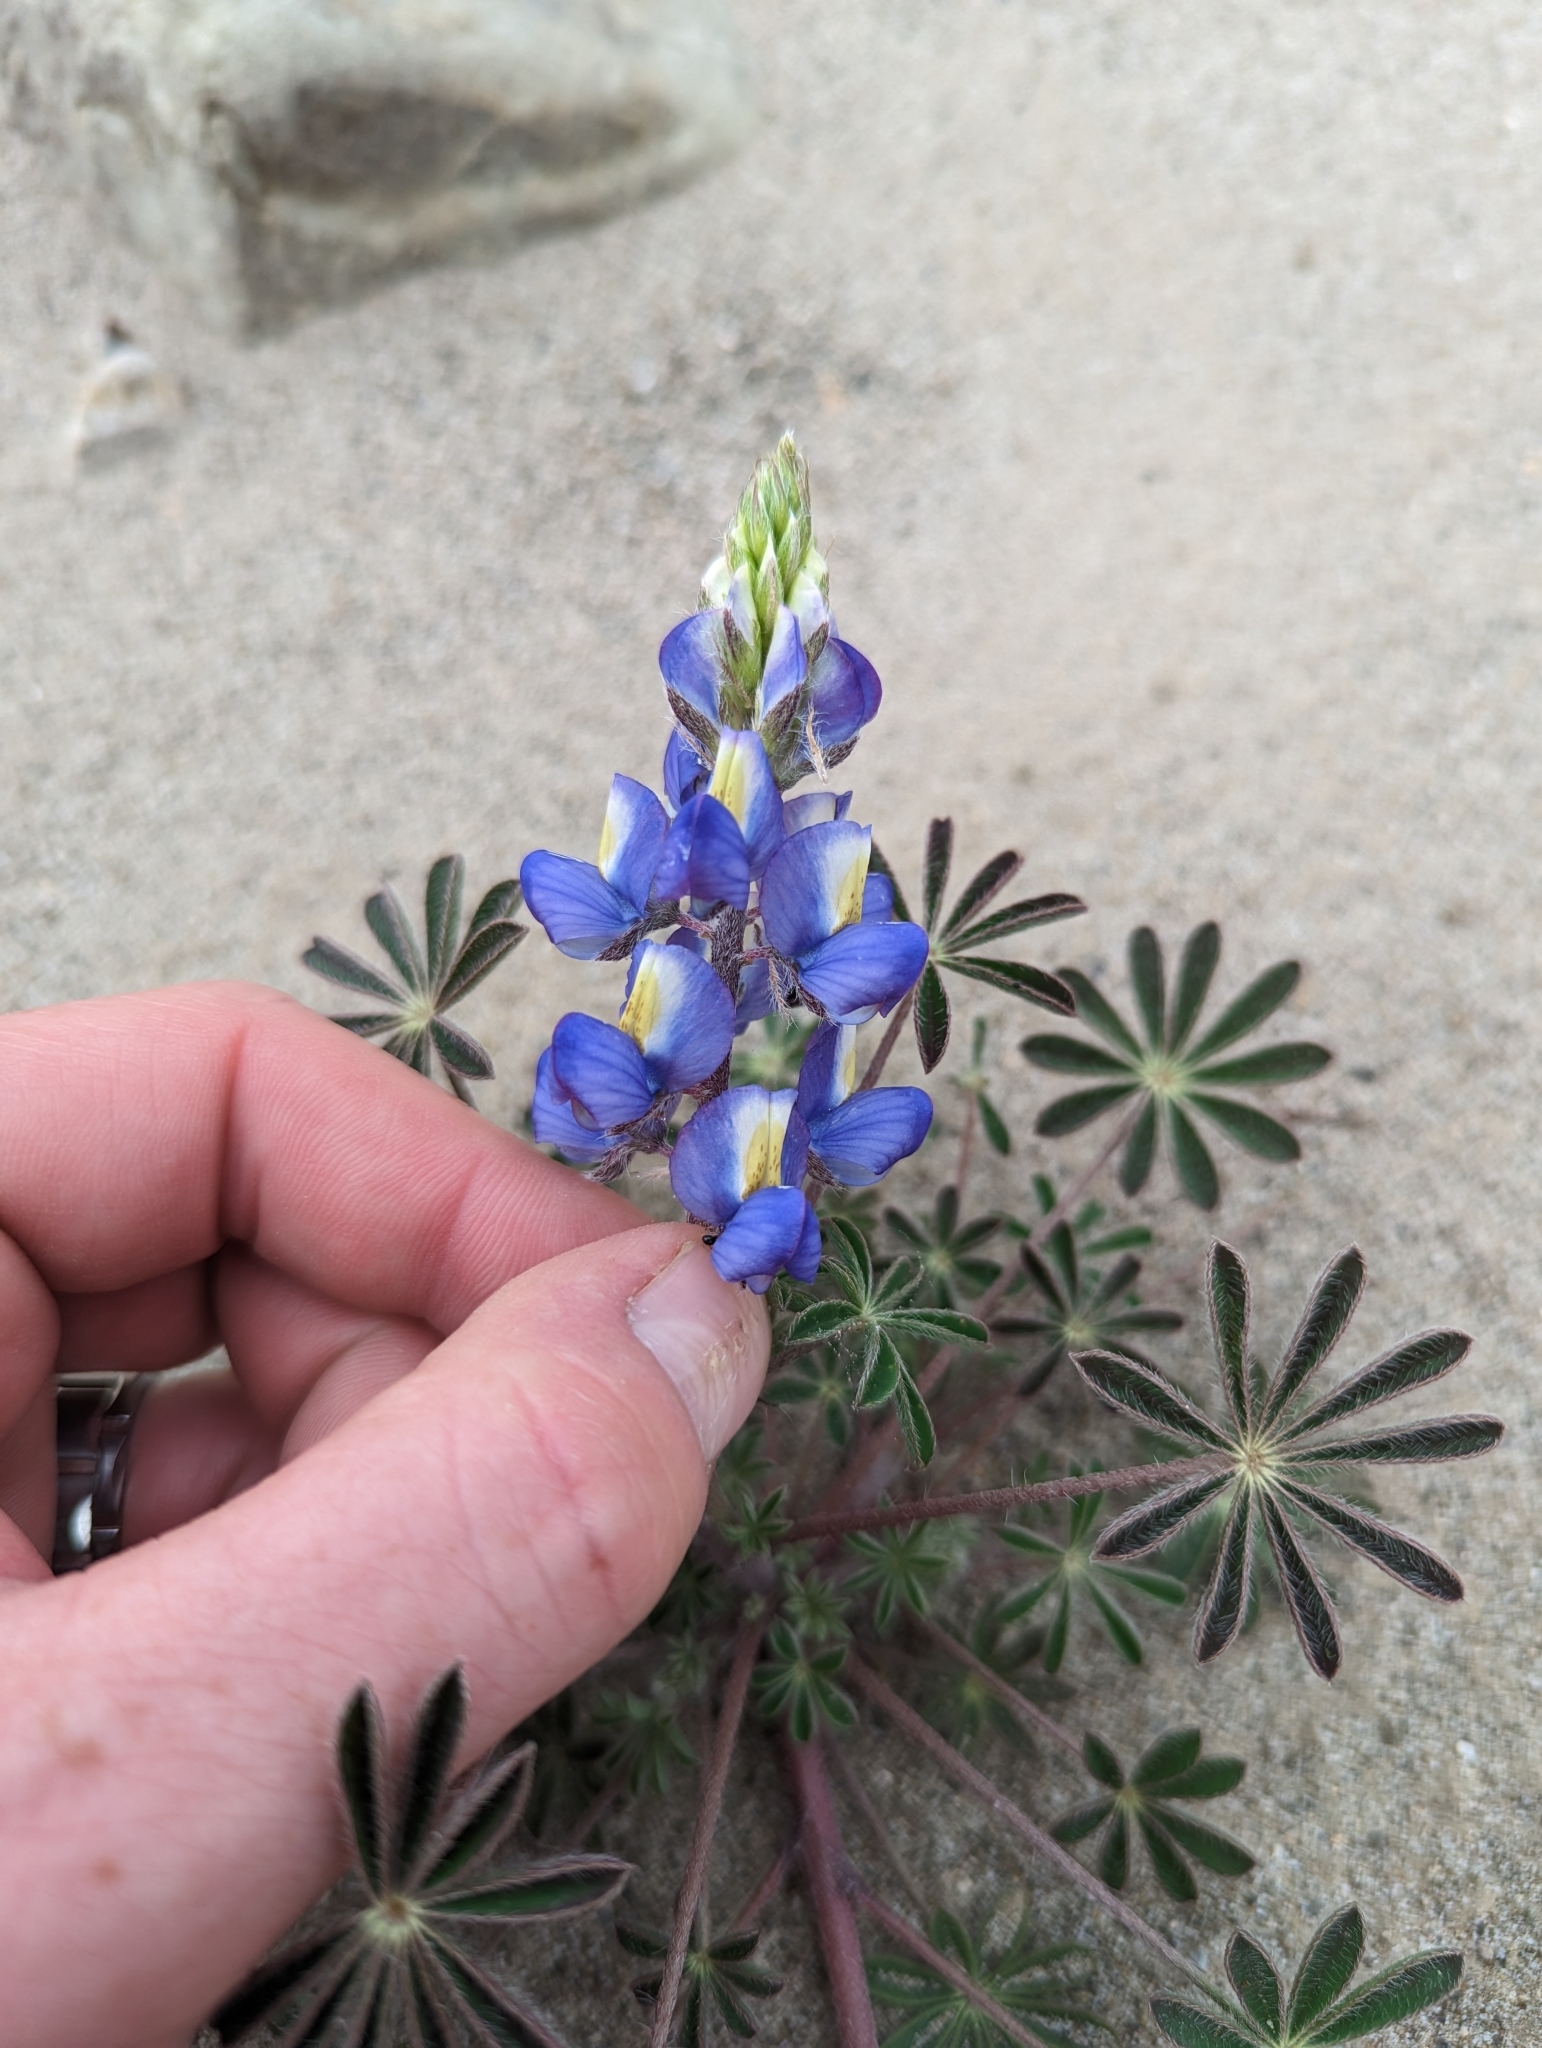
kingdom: Plantae
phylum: Tracheophyta
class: Magnoliopsida
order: Fabales
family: Fabaceae
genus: Lupinus
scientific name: Lupinus sparsiflorus
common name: Coulter's lupine
